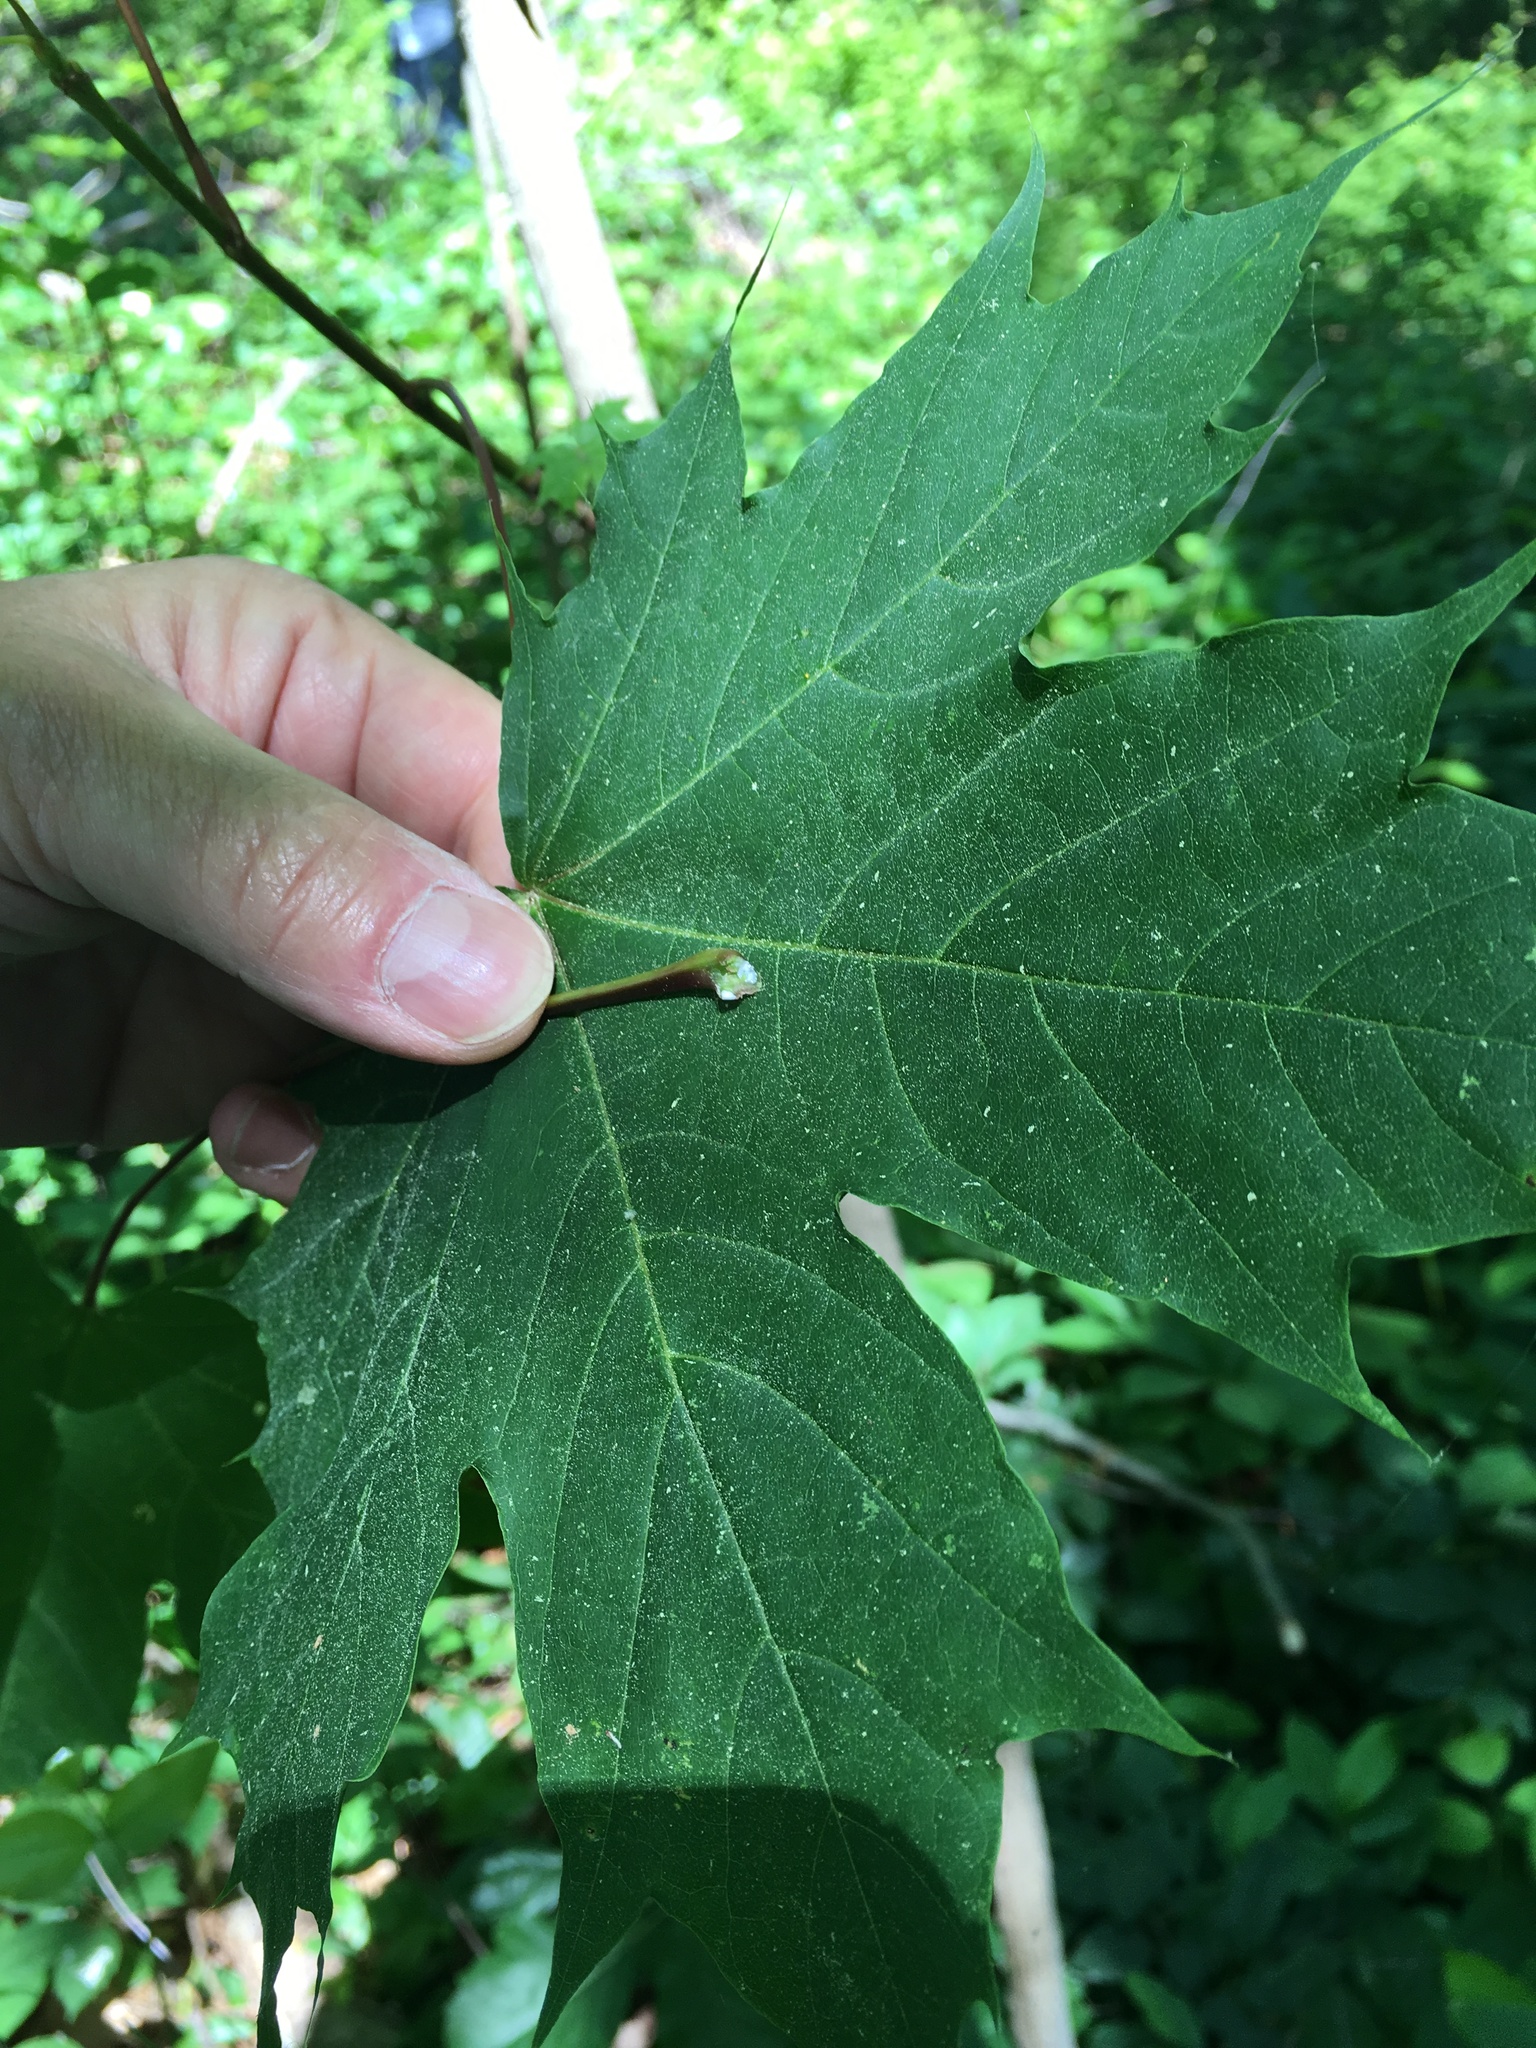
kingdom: Plantae
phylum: Tracheophyta
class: Magnoliopsida
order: Sapindales
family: Sapindaceae
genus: Acer
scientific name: Acer platanoides
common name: Norway maple
